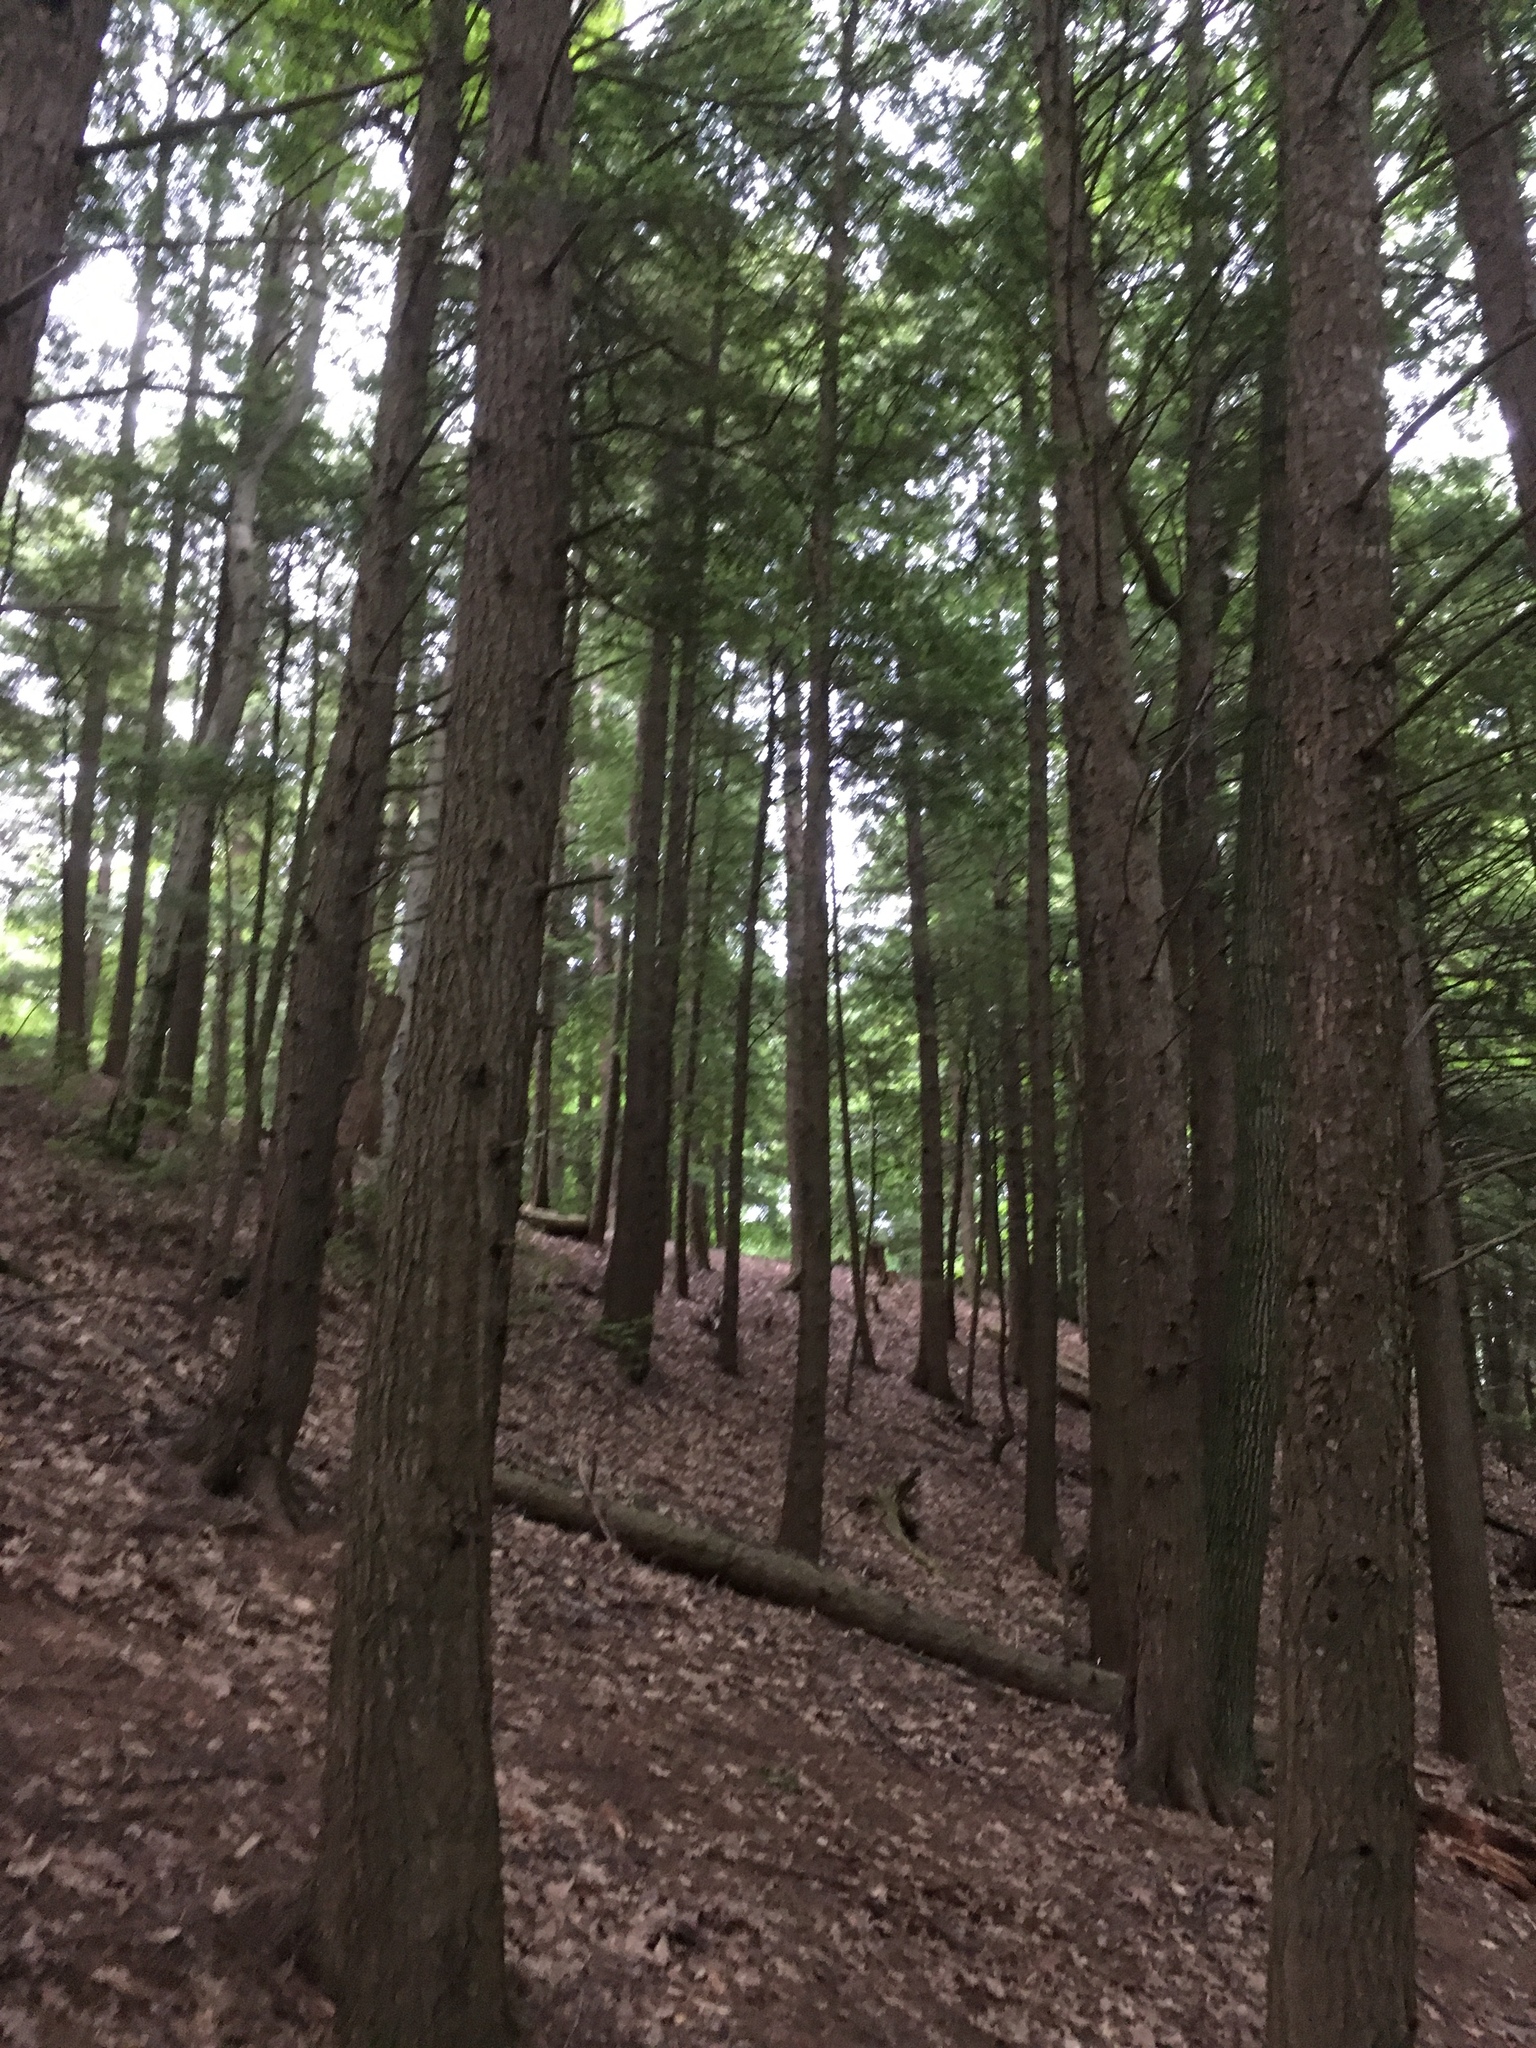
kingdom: Plantae
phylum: Tracheophyta
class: Pinopsida
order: Pinales
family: Pinaceae
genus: Tsuga
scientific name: Tsuga canadensis
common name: Eastern hemlock
